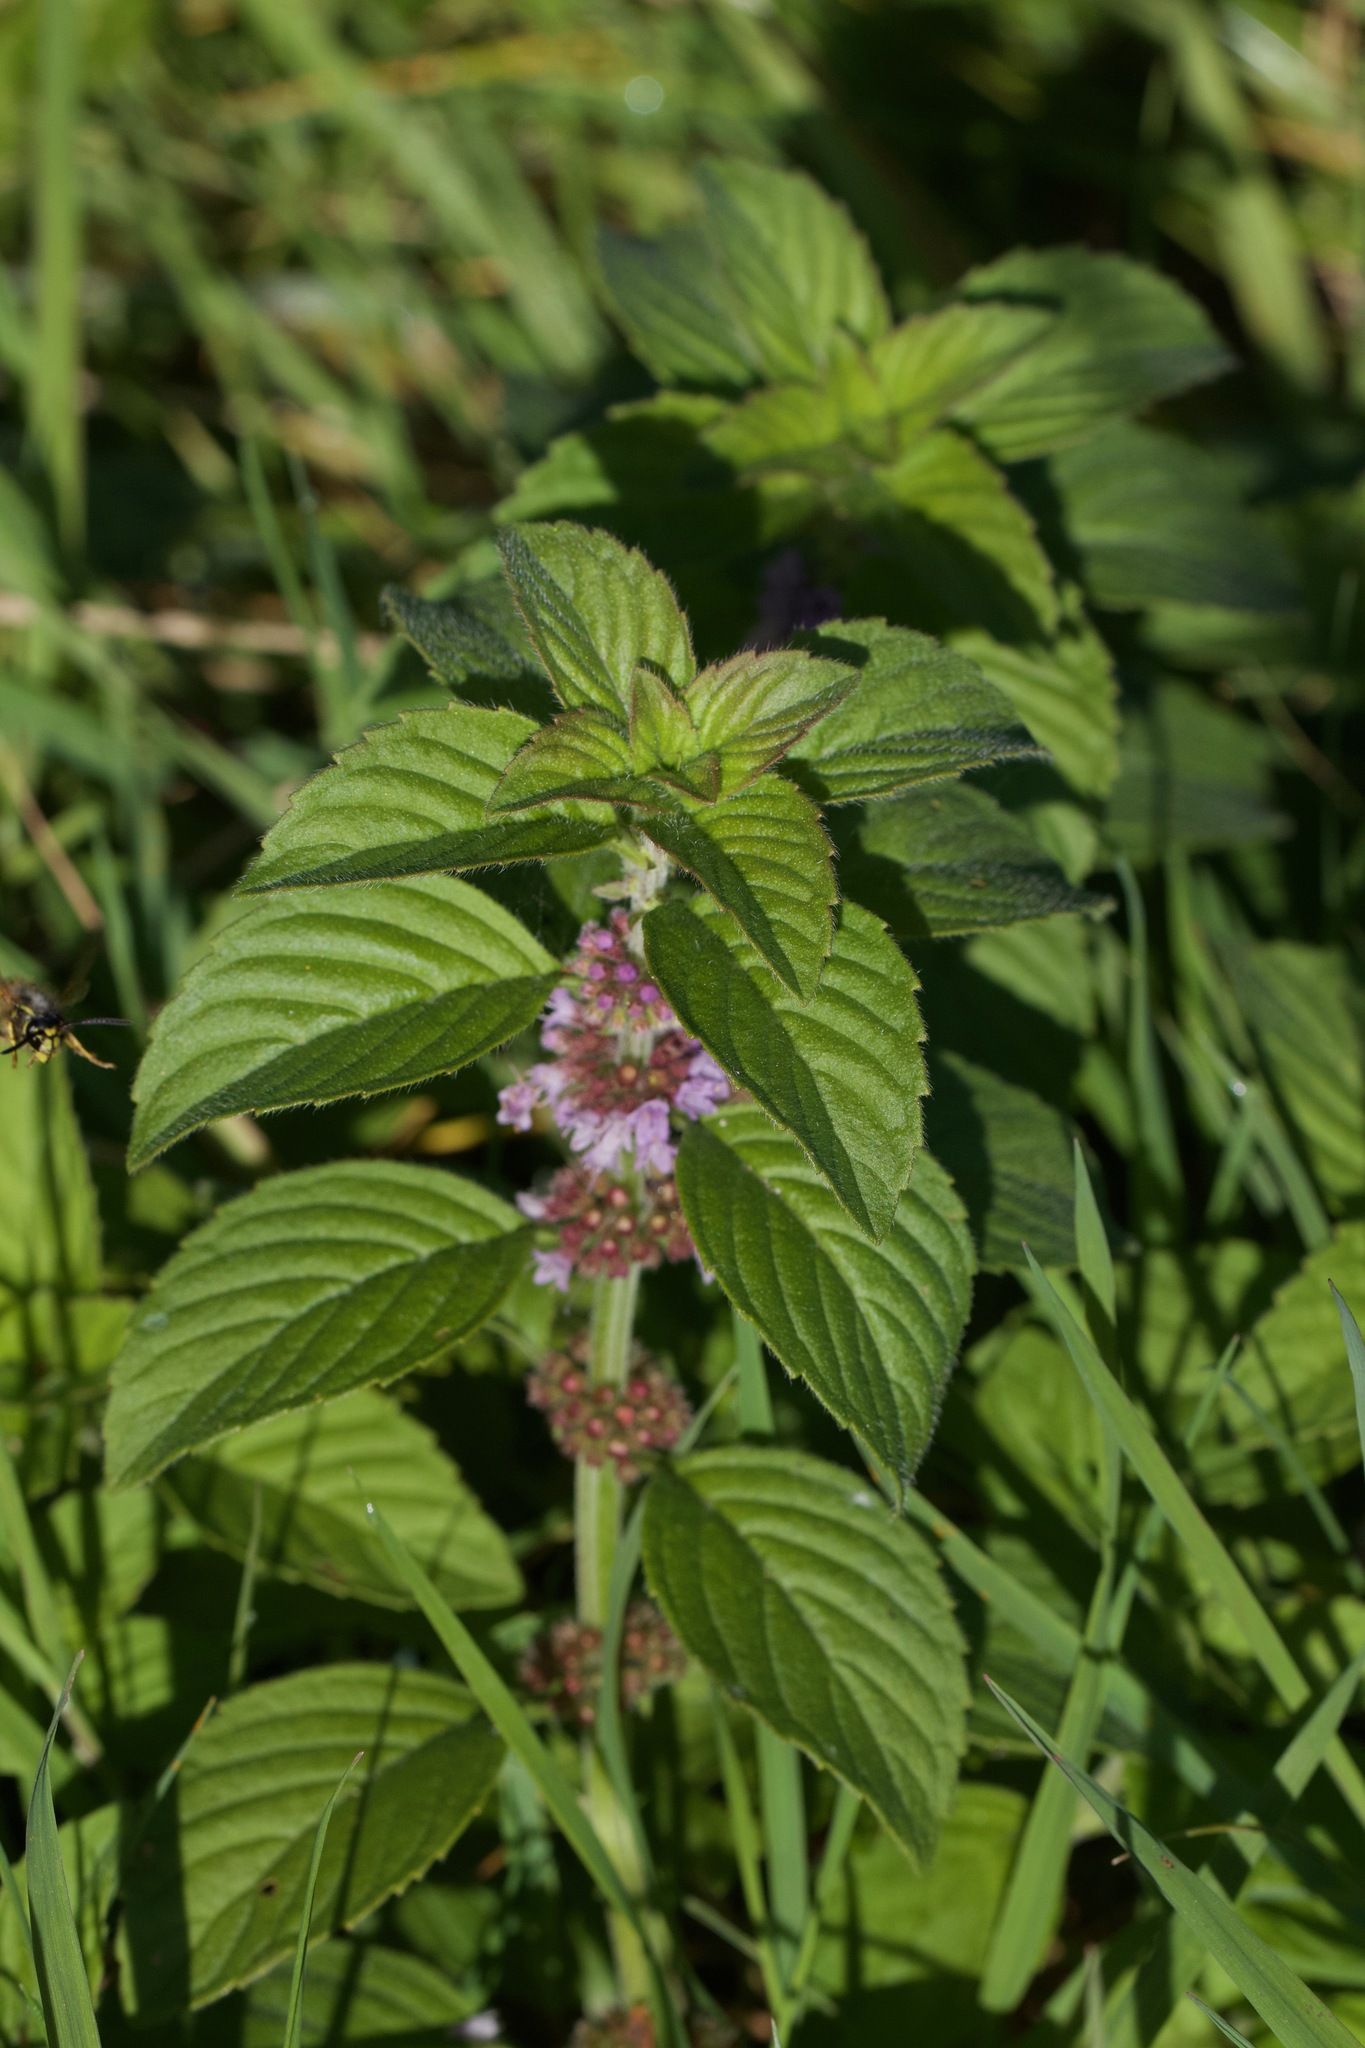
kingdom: Plantae
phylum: Tracheophyta
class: Magnoliopsida
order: Lamiales
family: Lamiaceae
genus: Mentha
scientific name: Mentha arvensis
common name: Corn mint
